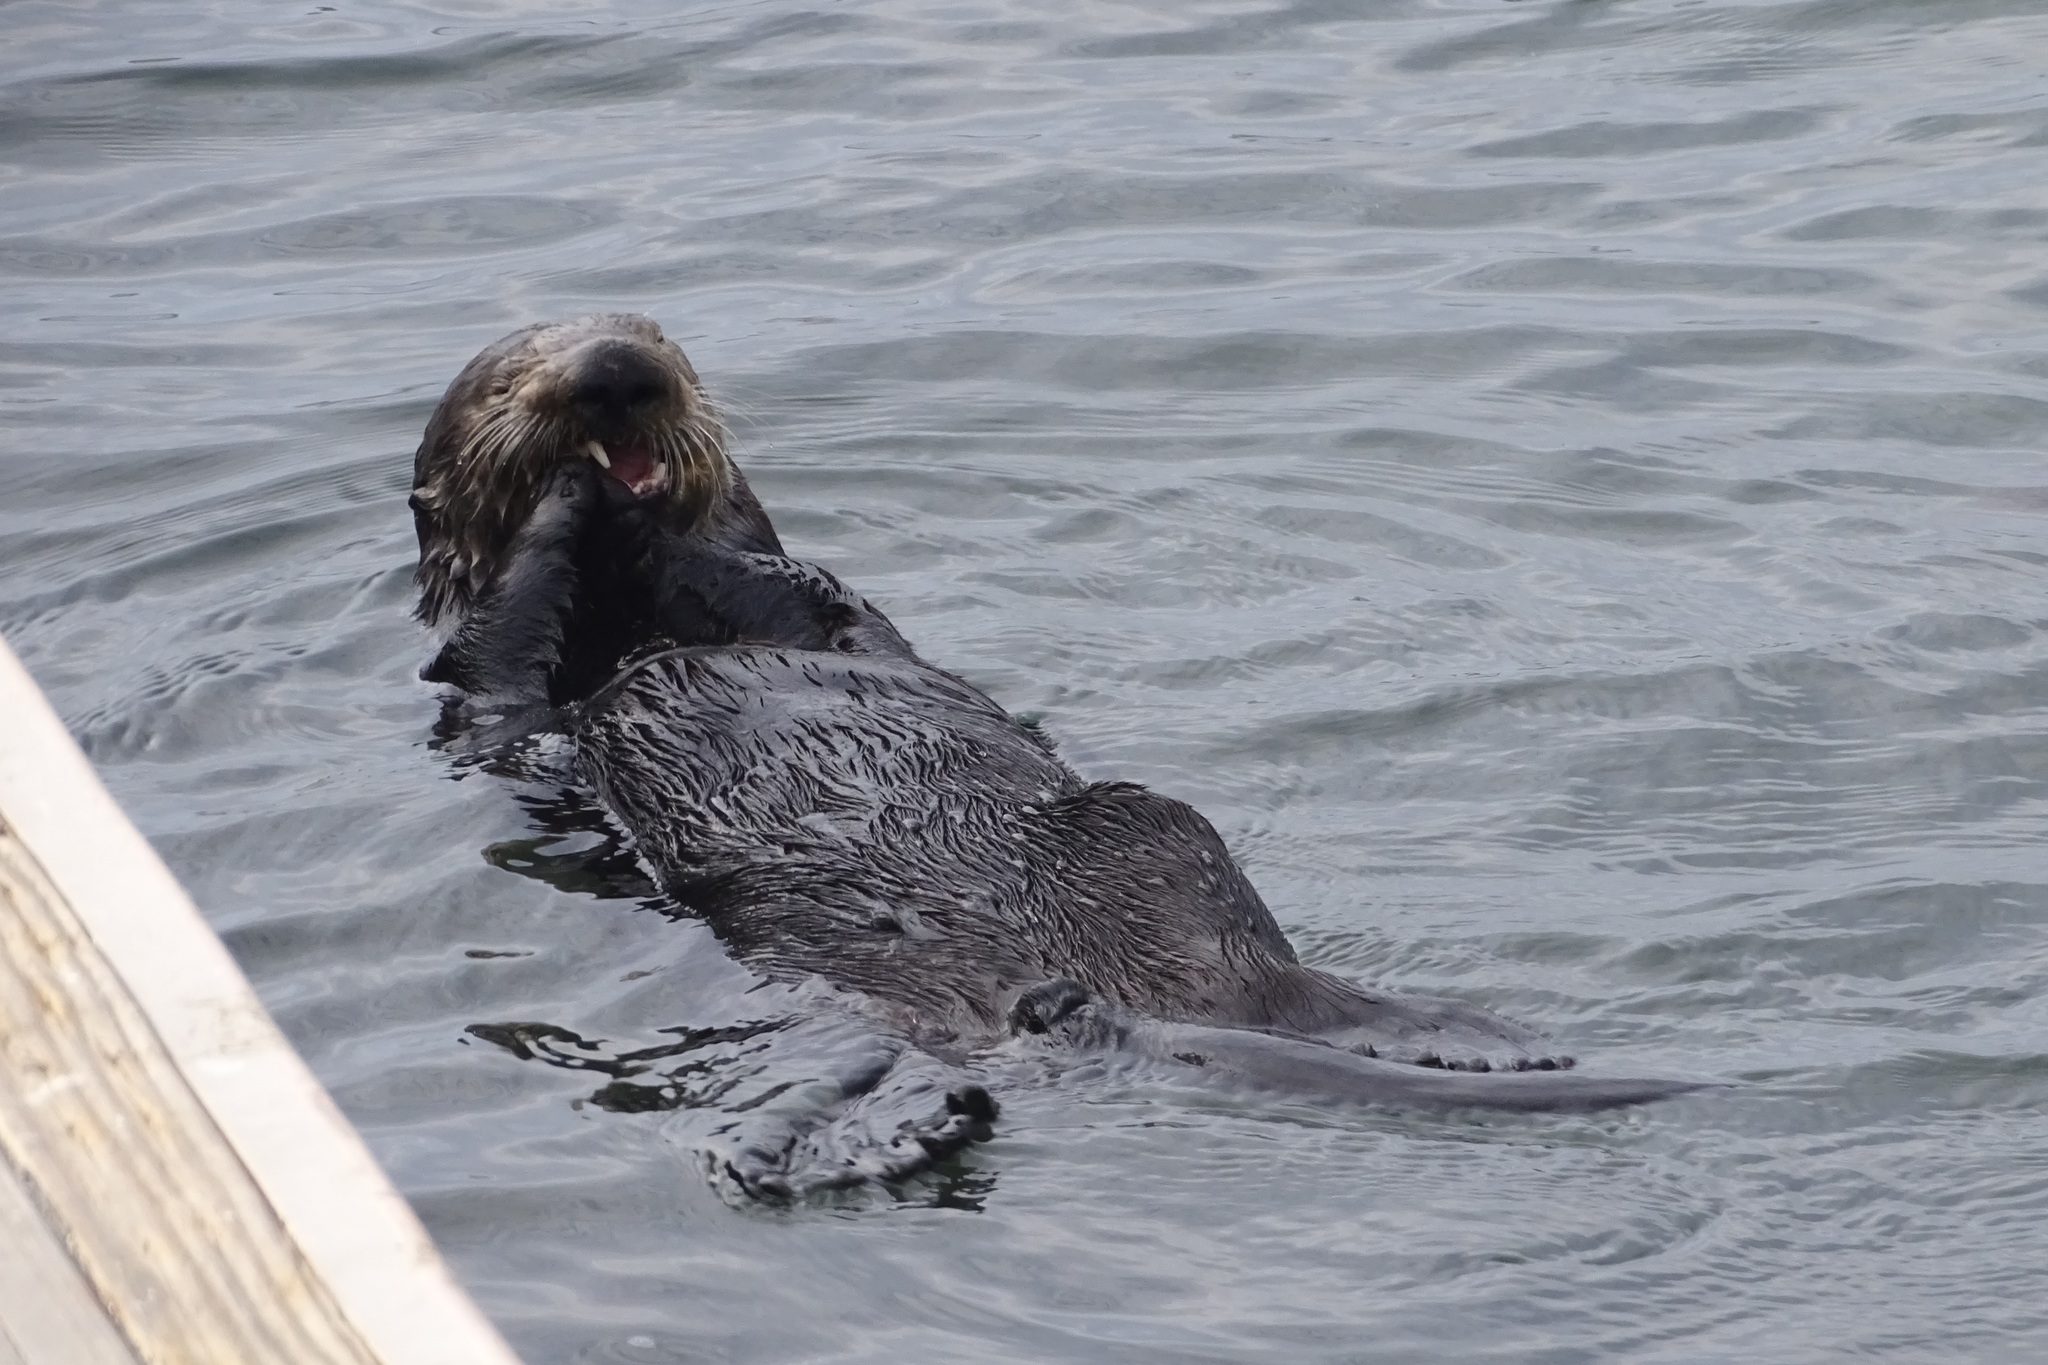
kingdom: Animalia
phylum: Chordata
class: Mammalia
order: Carnivora
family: Mustelidae
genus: Enhydra
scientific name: Enhydra lutris
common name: Sea otter
